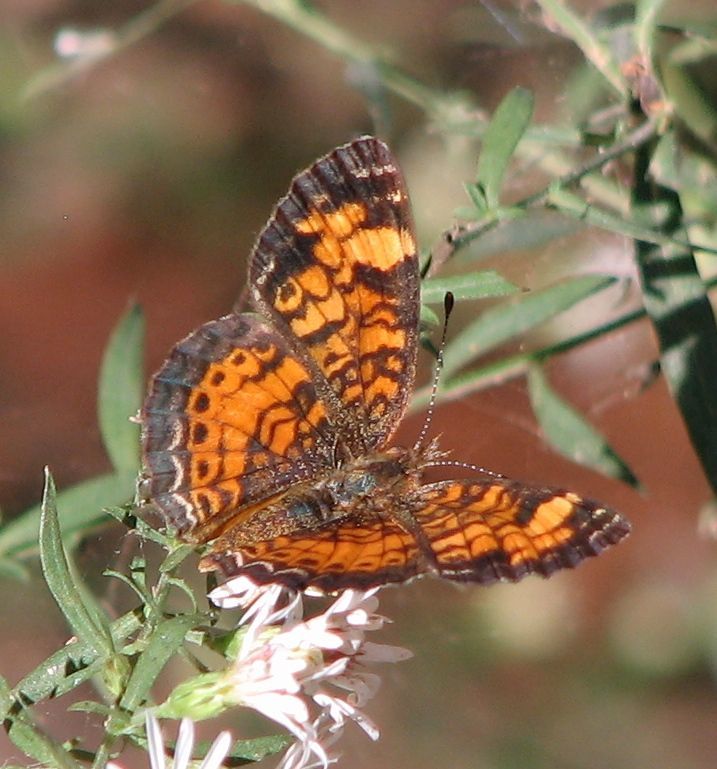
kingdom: Animalia
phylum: Arthropoda
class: Insecta
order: Lepidoptera
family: Nymphalidae
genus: Phyciodes
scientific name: Phyciodes tharos
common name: Pearl crescent
